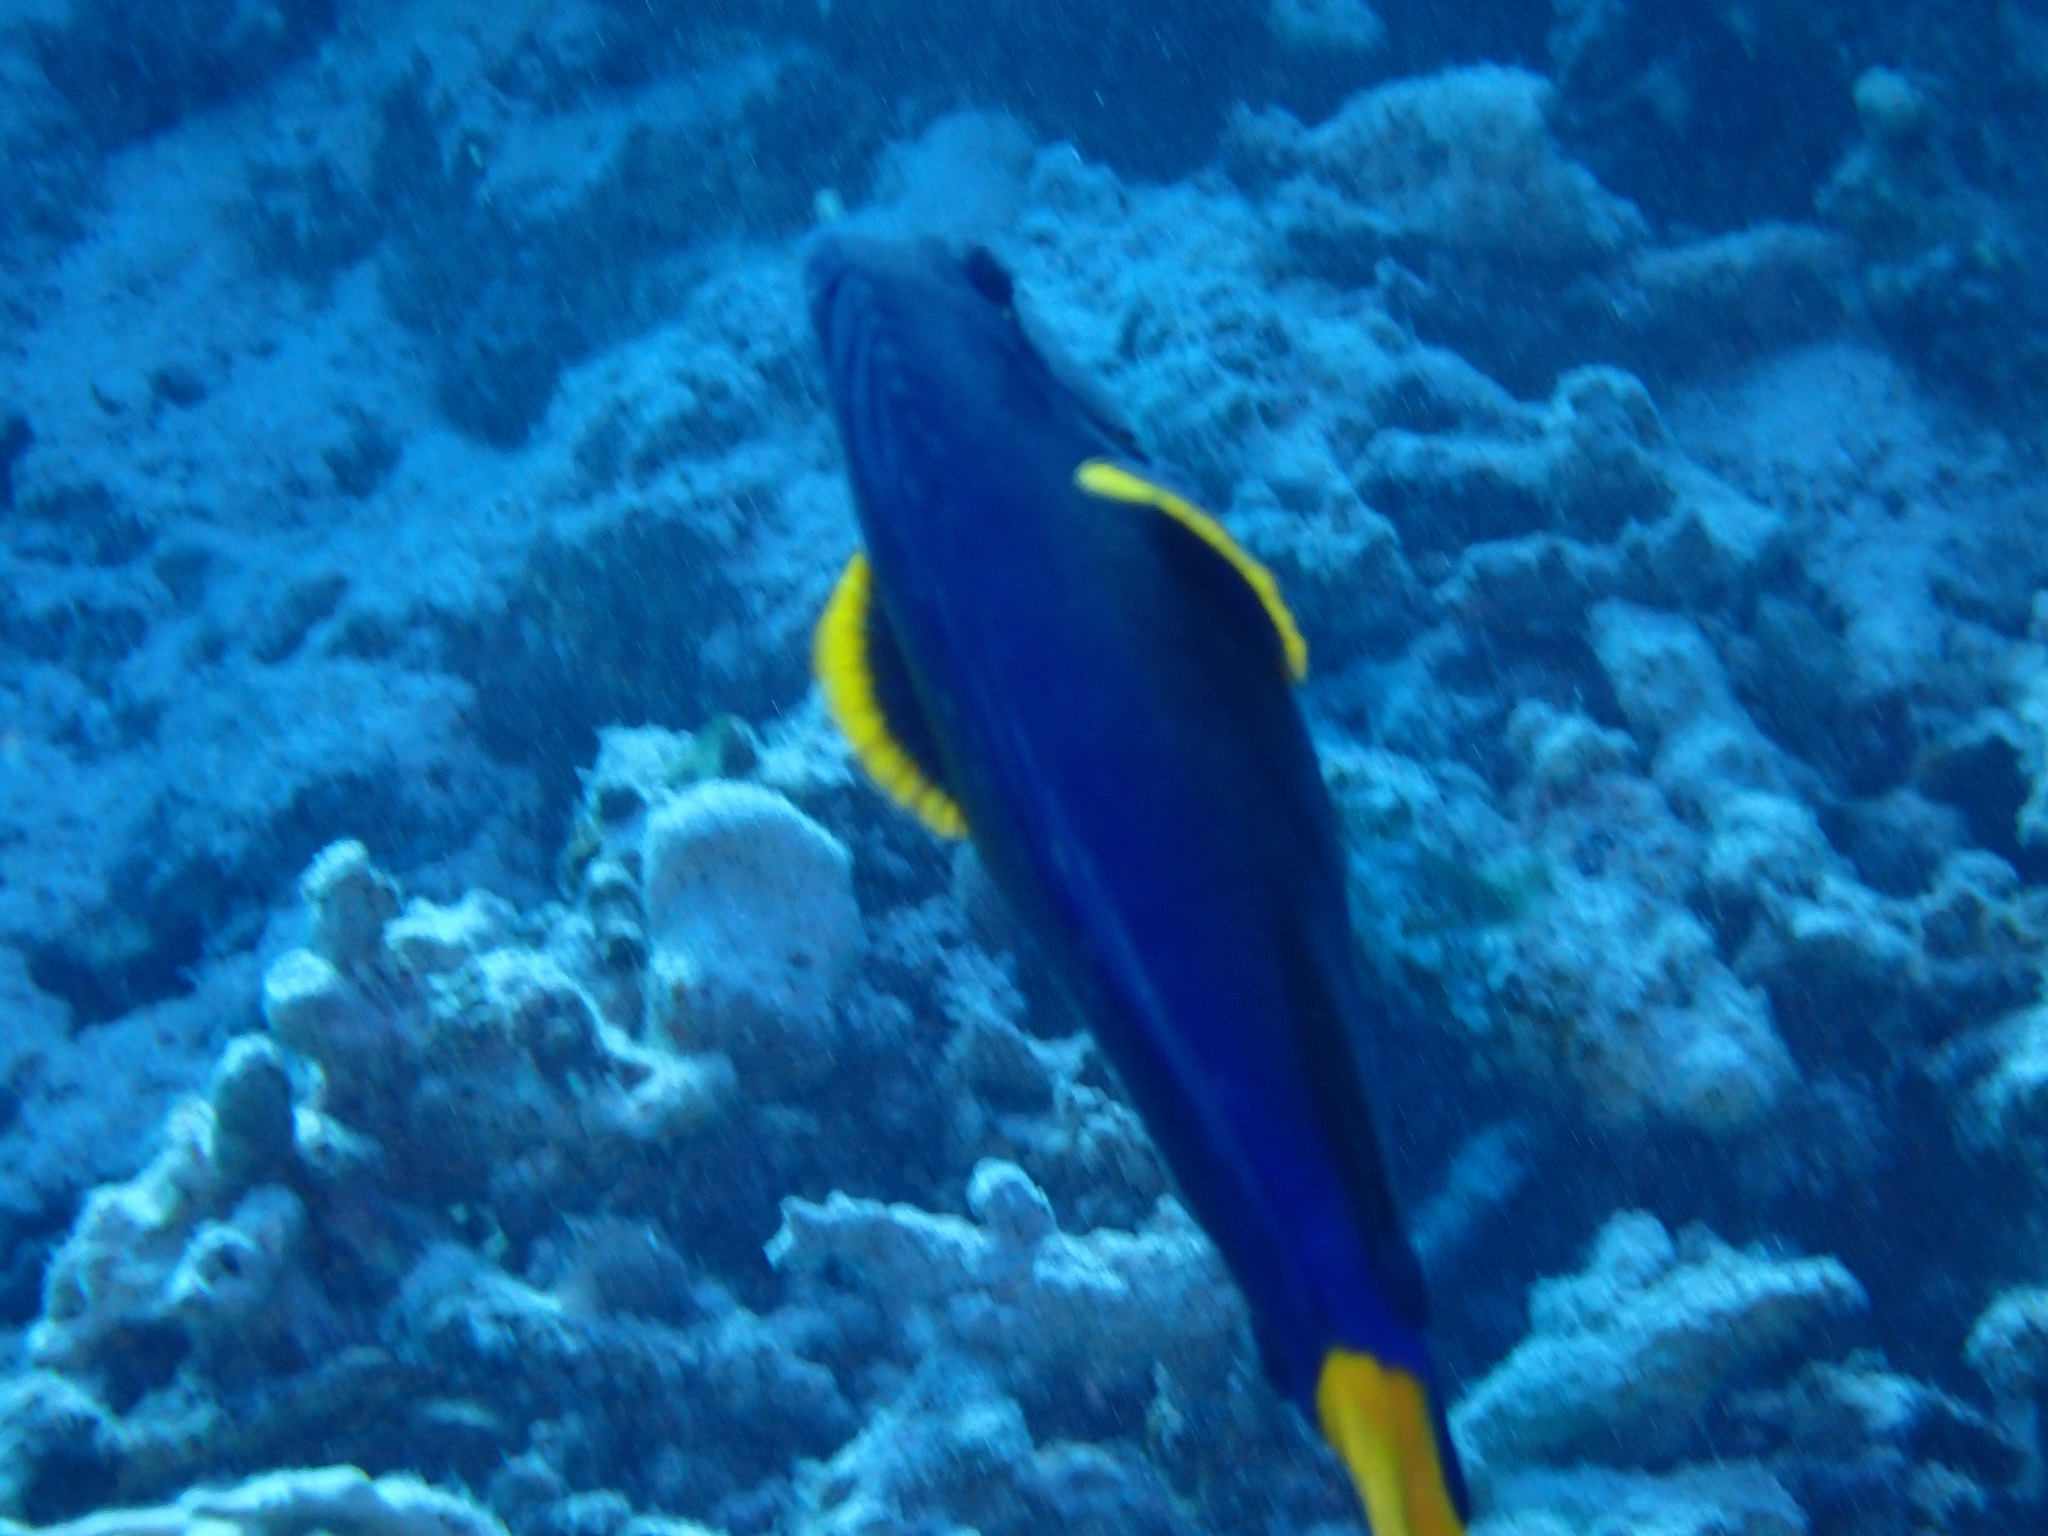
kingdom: Animalia
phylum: Chordata
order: Perciformes
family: Acanthuridae
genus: Zebrasoma
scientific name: Zebrasoma xanthurum
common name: Purple tang
